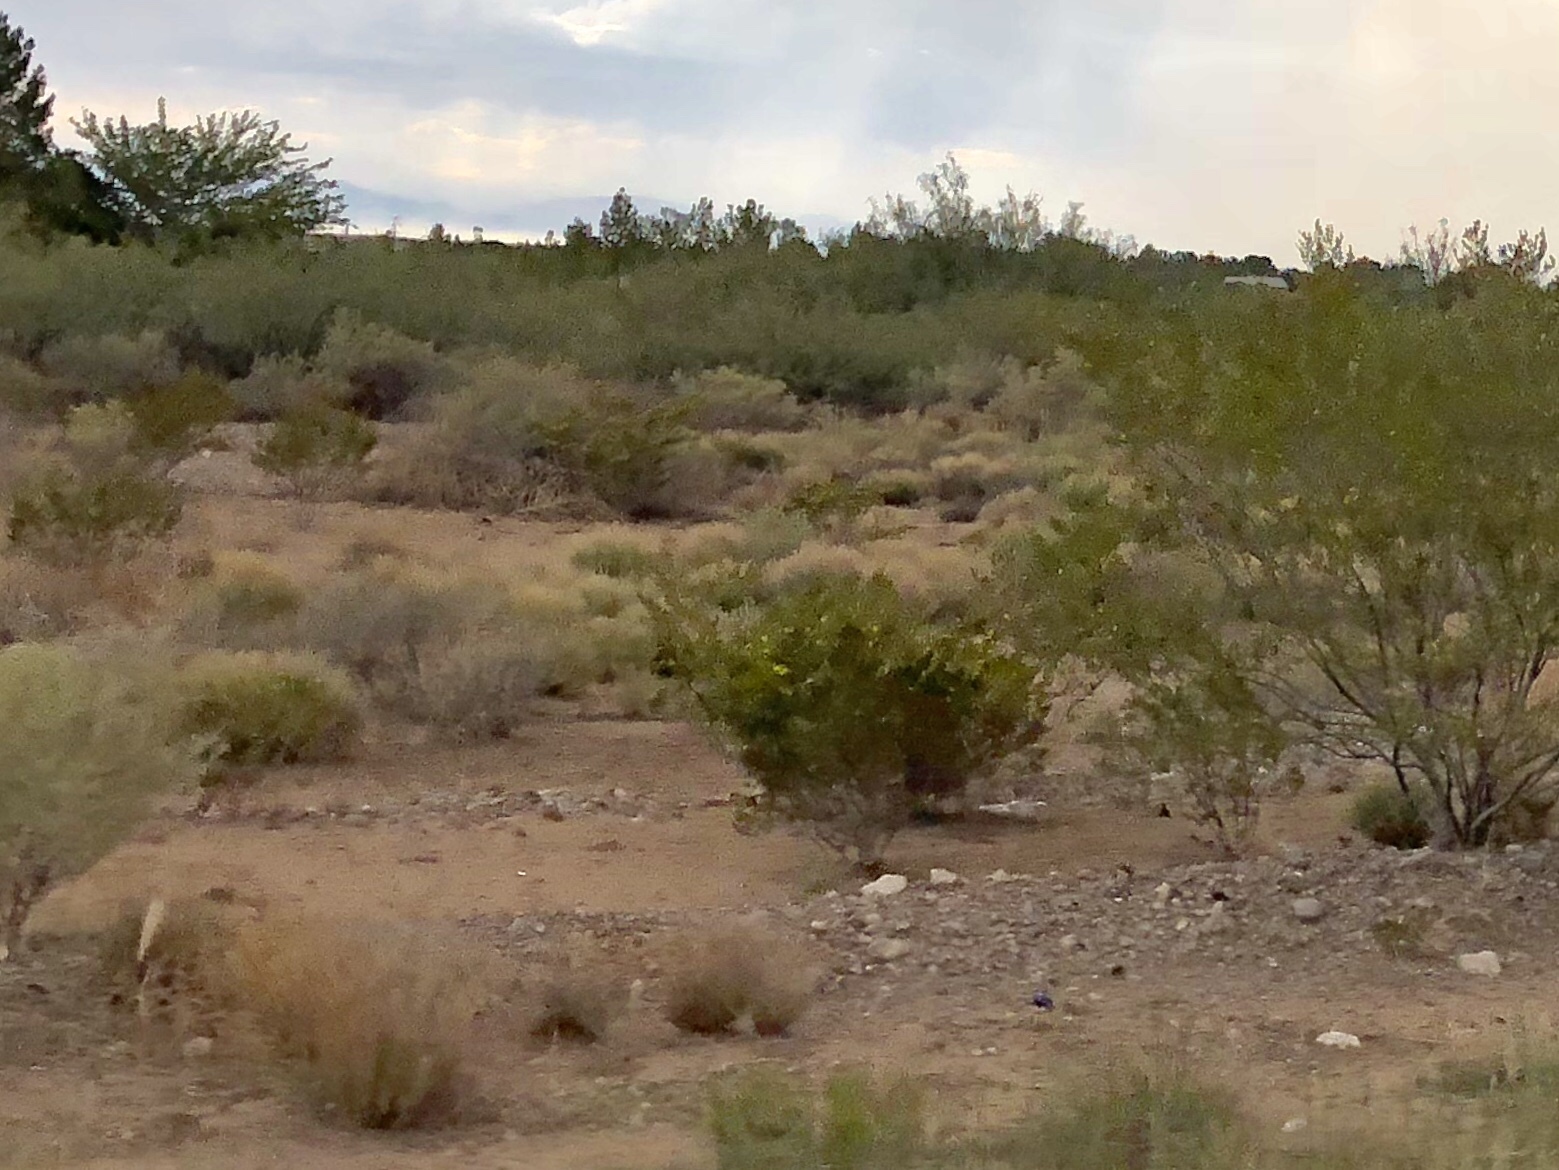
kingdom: Plantae
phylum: Tracheophyta
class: Magnoliopsida
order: Zygophyllales
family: Zygophyllaceae
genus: Larrea
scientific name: Larrea tridentata
